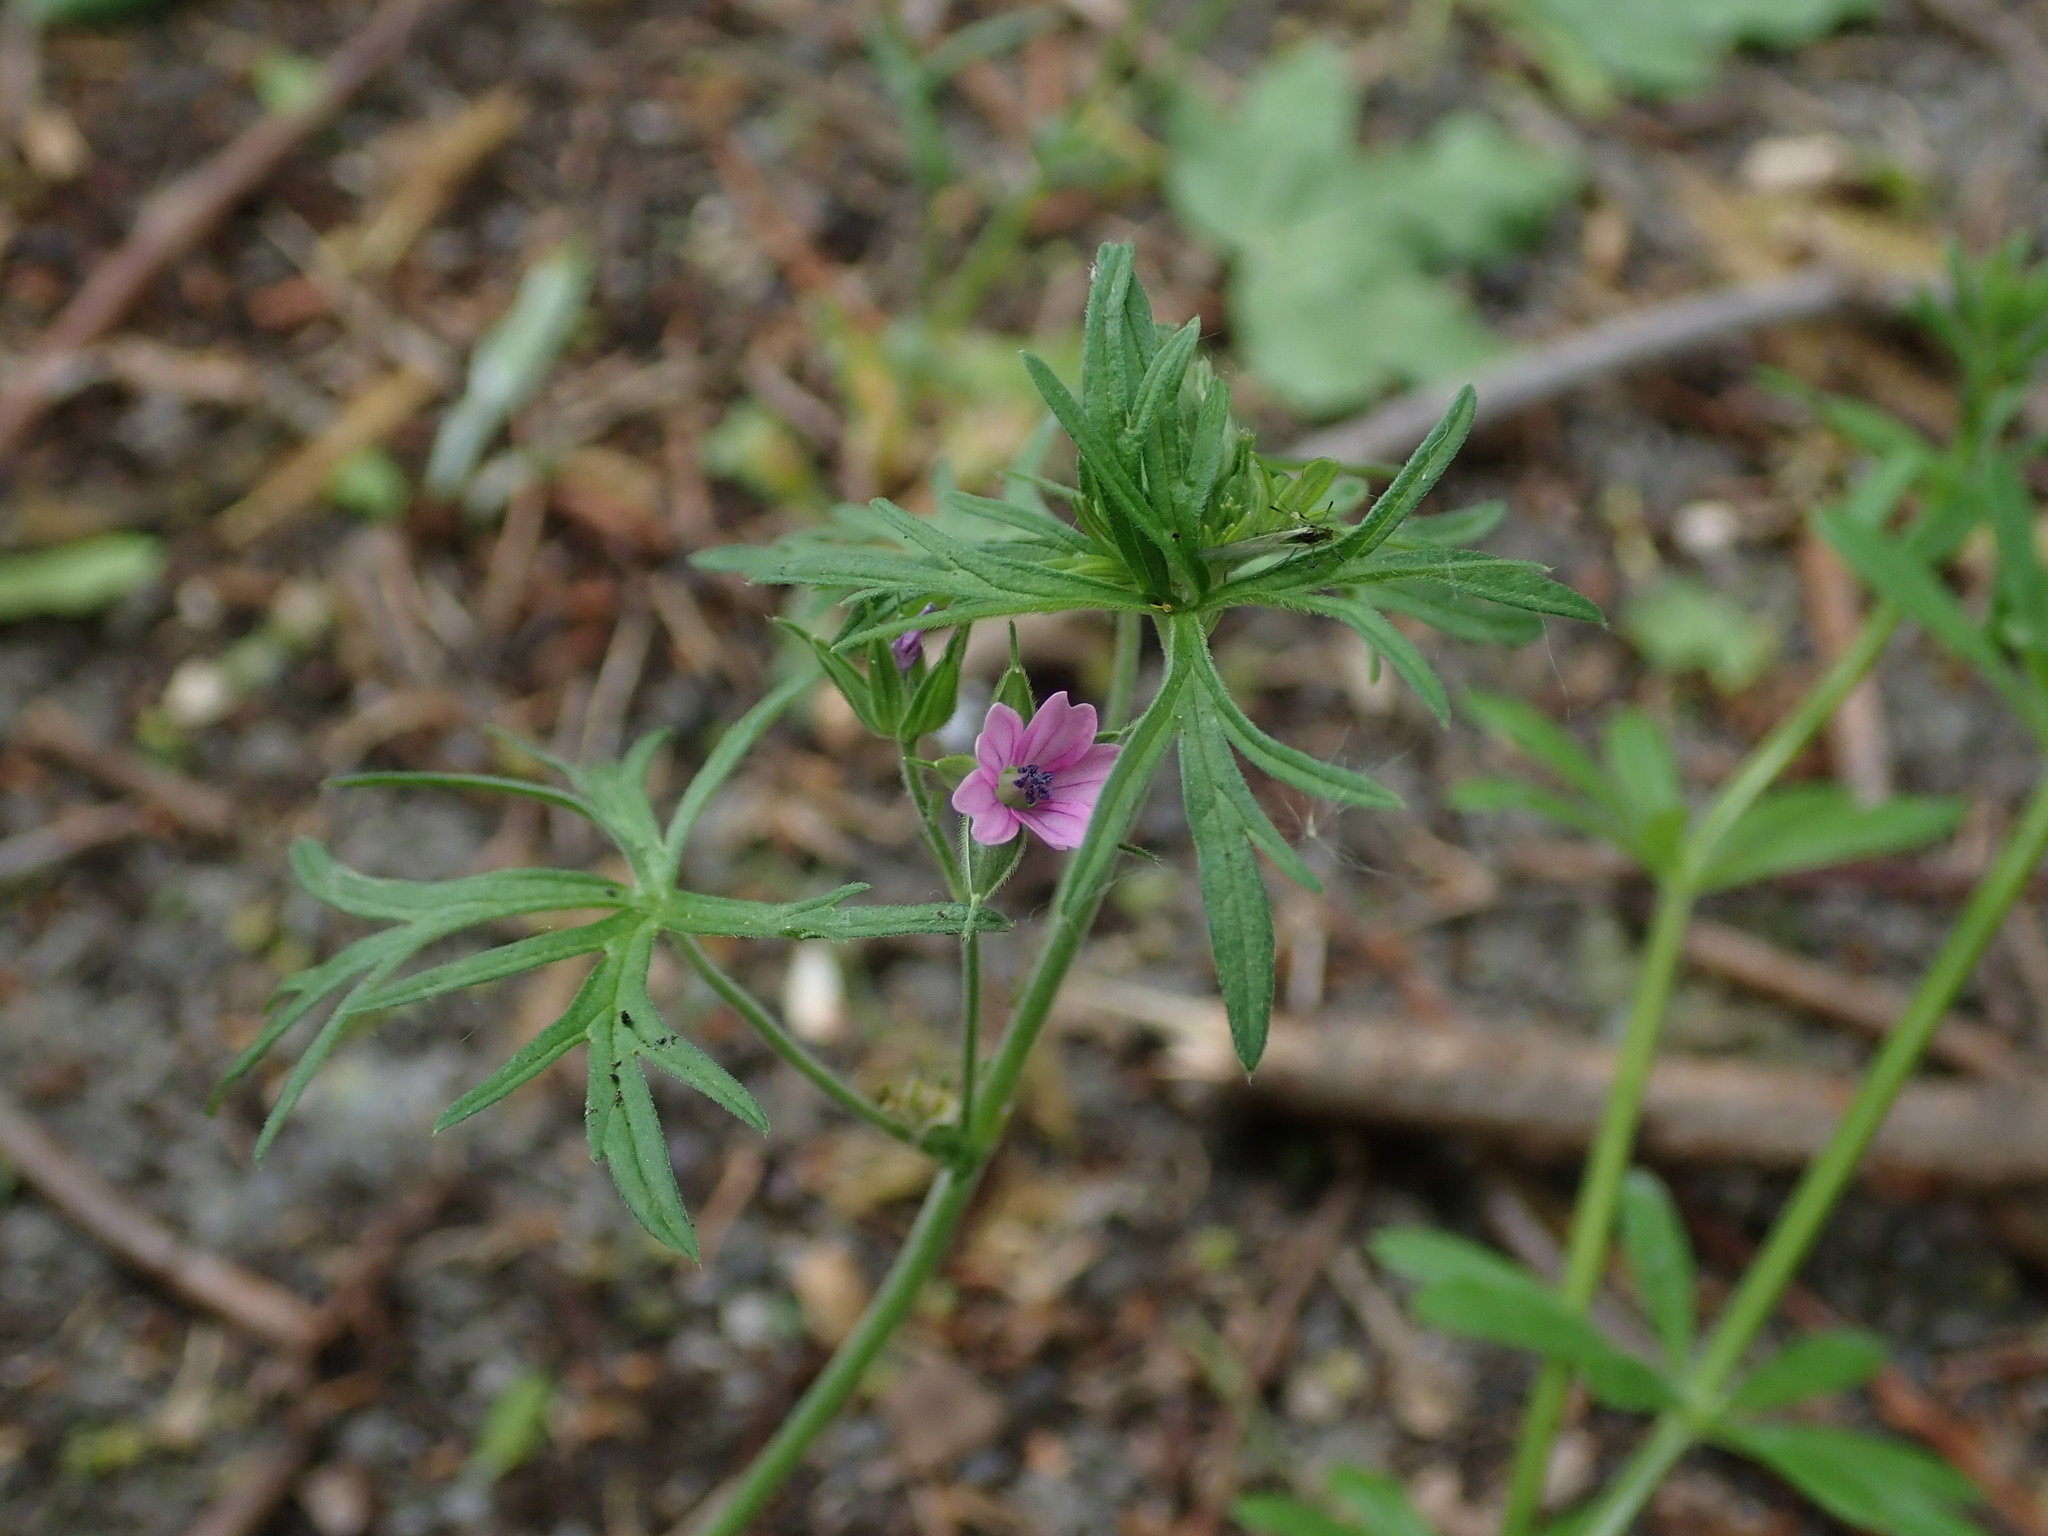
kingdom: Plantae
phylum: Tracheophyta
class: Magnoliopsida
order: Geraniales
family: Geraniaceae
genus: Geranium
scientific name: Geranium dissectum
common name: Cut-leaved crane's-bill
